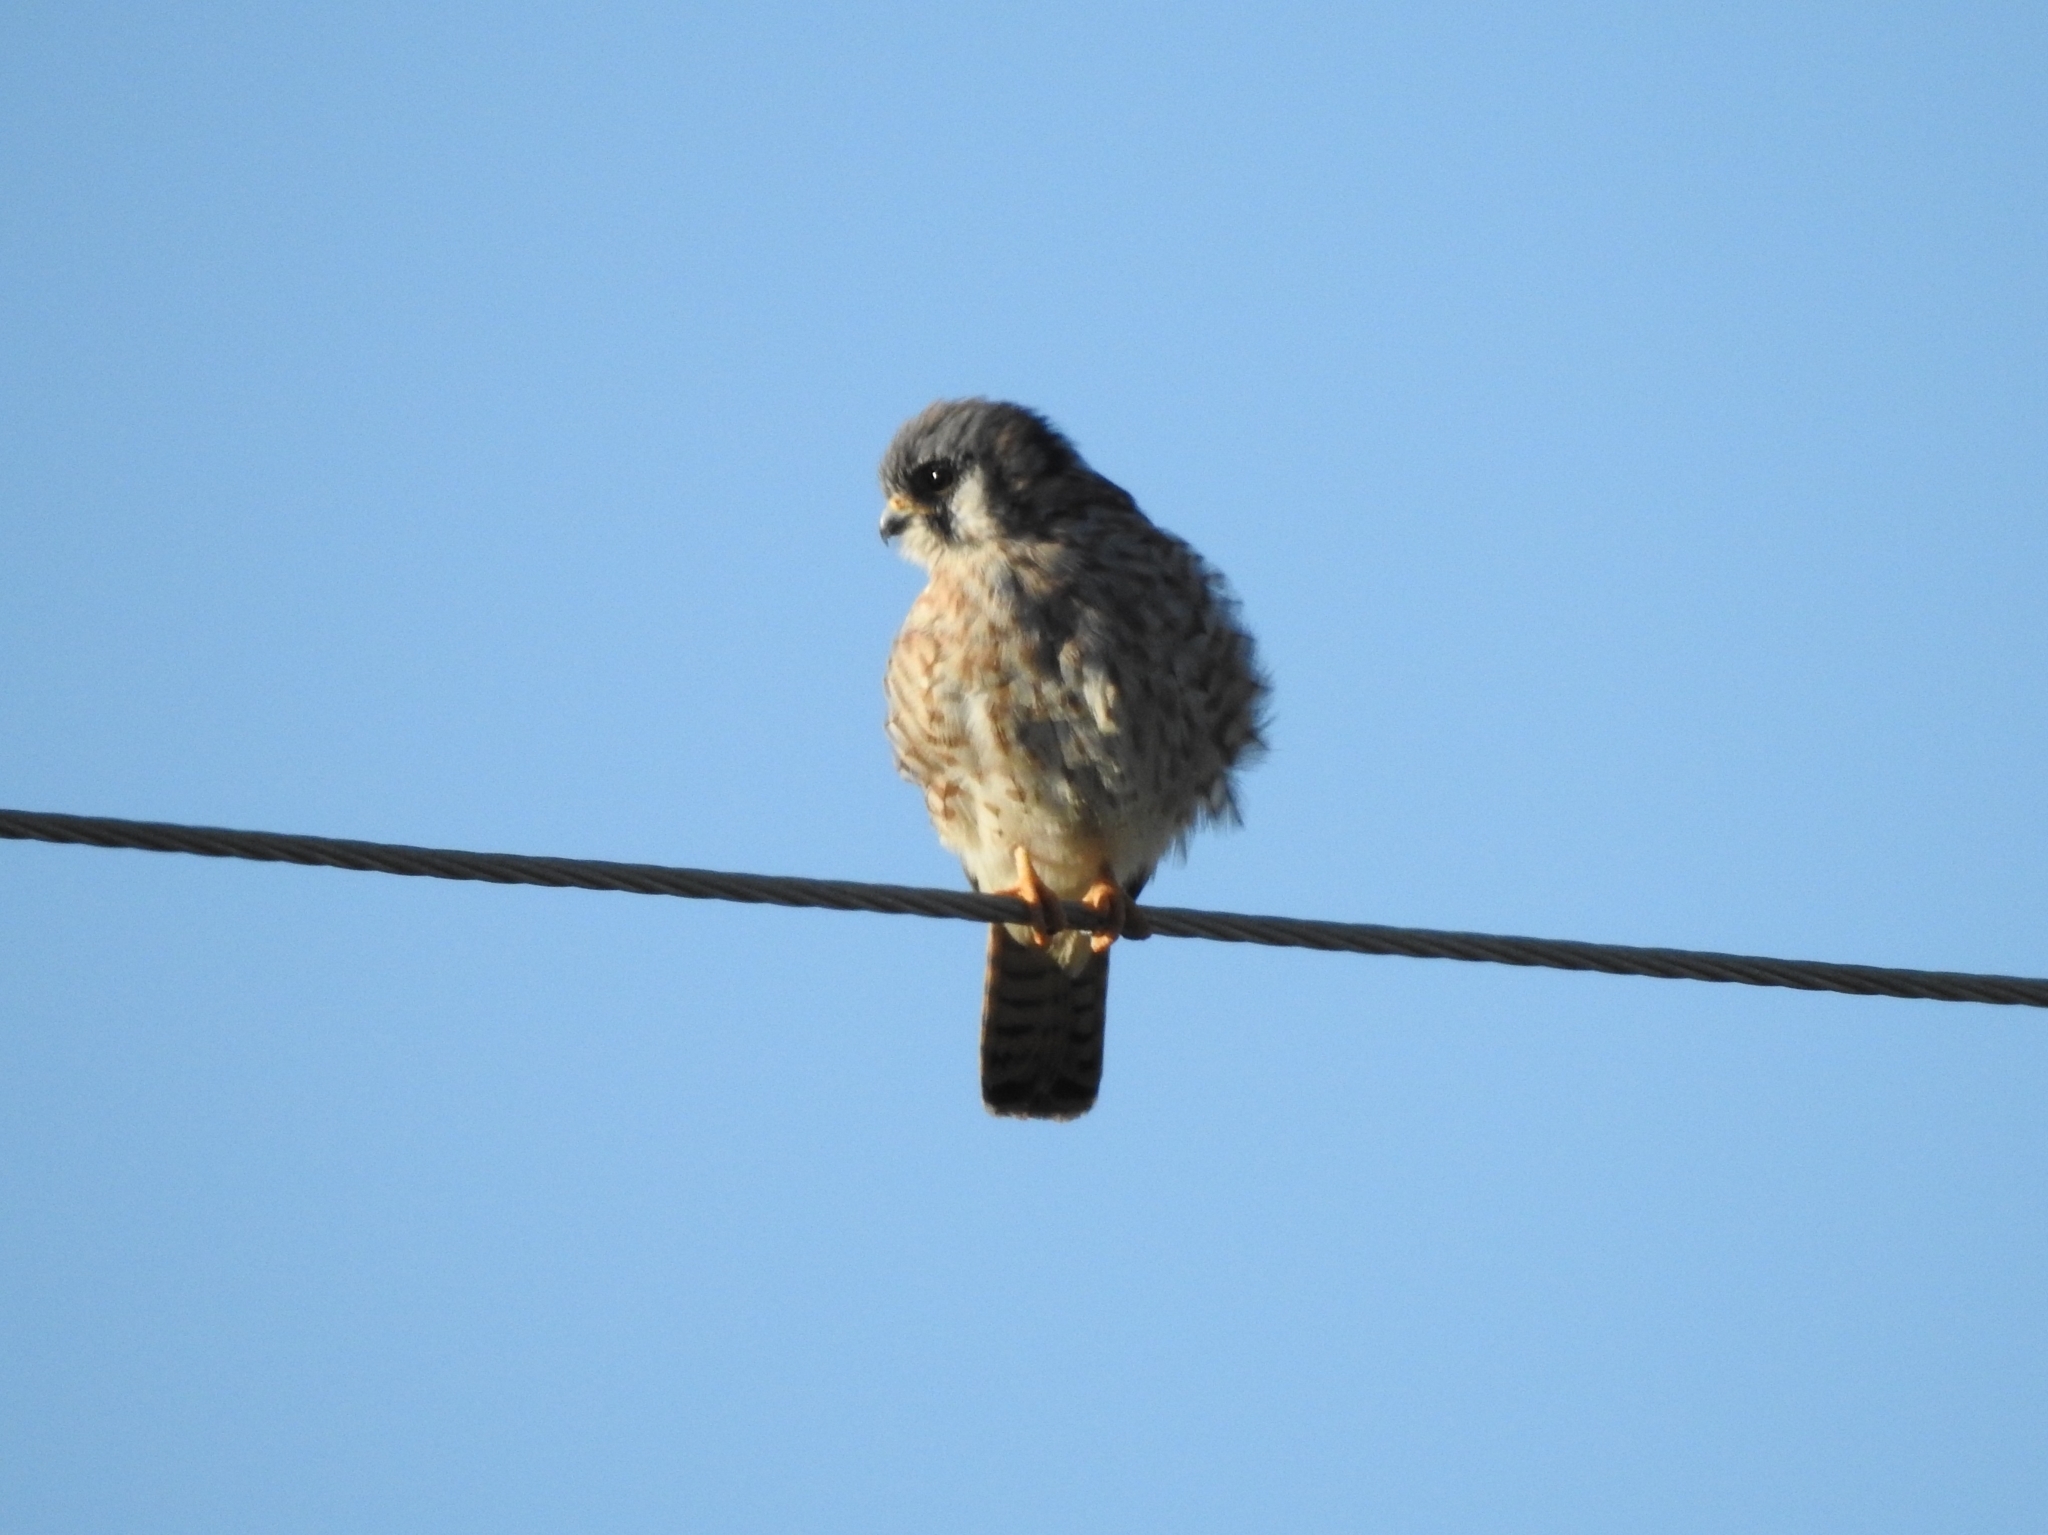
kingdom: Animalia
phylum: Chordata
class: Aves
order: Falconiformes
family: Falconidae
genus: Falco
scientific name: Falco sparverius
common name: American kestrel
